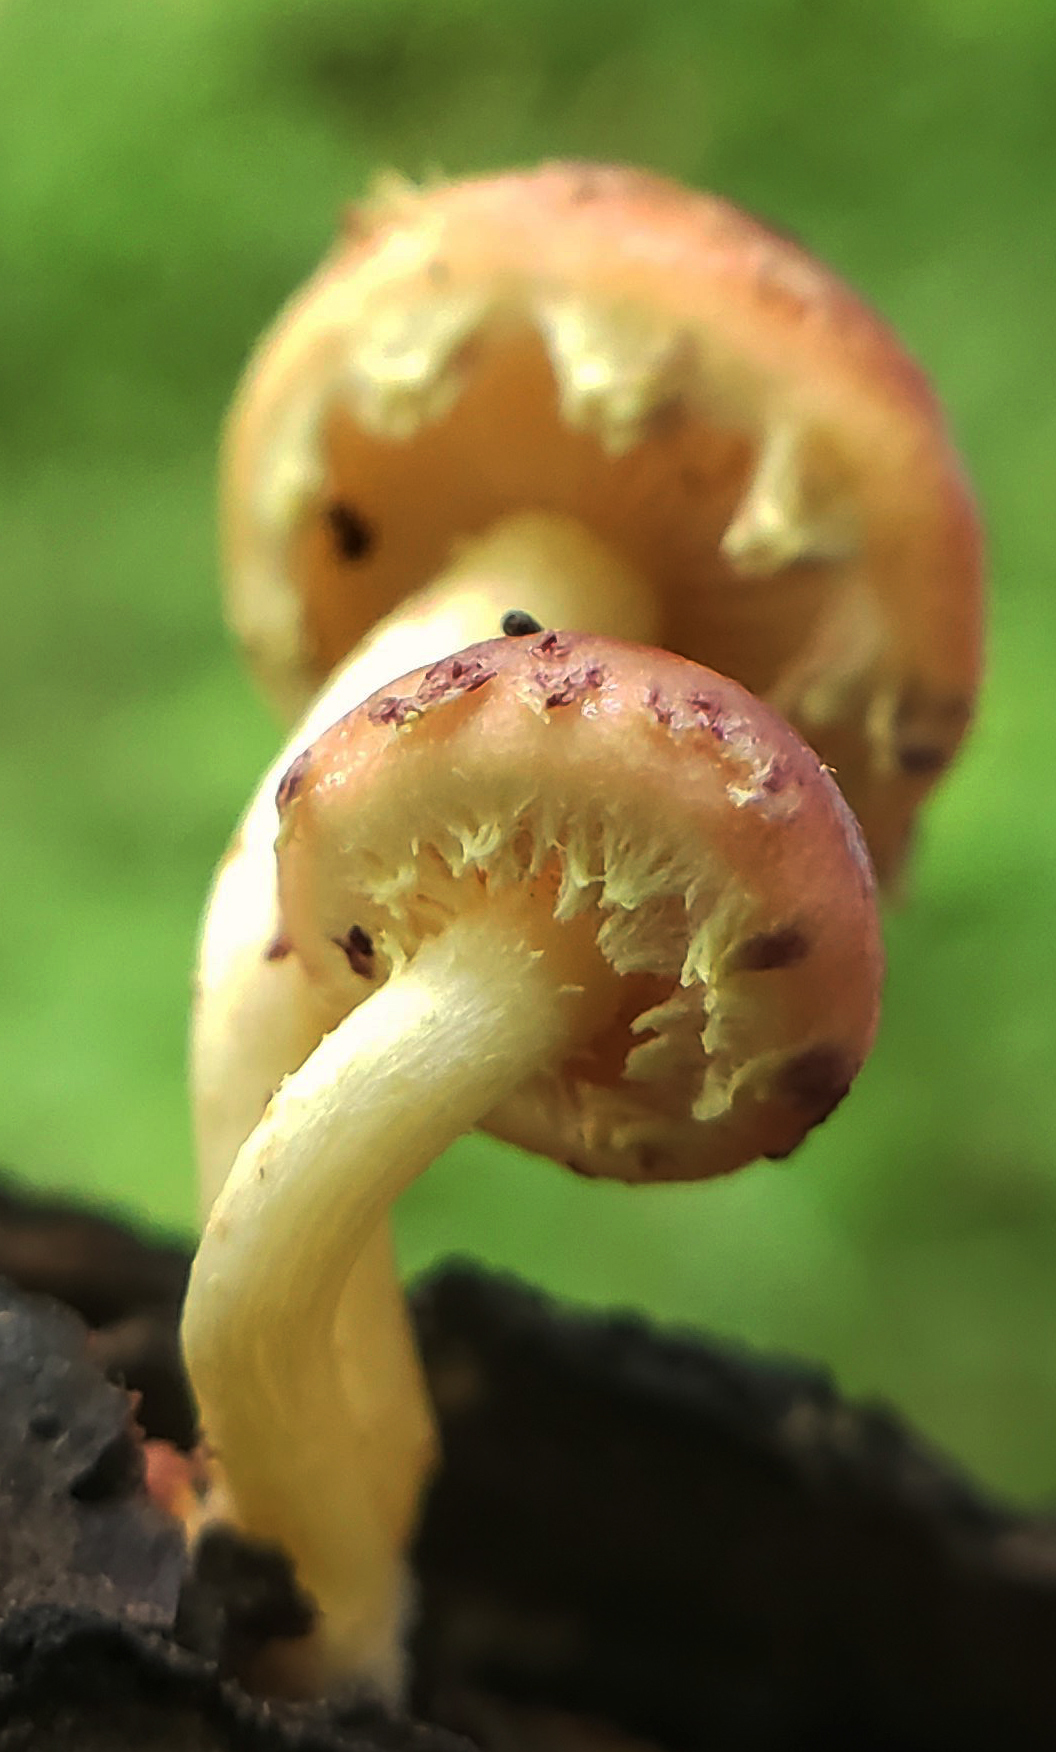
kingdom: Fungi
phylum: Basidiomycota
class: Agaricomycetes
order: Agaricales
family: Strophariaceae
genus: Pholiota
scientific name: Pholiota polychroa
